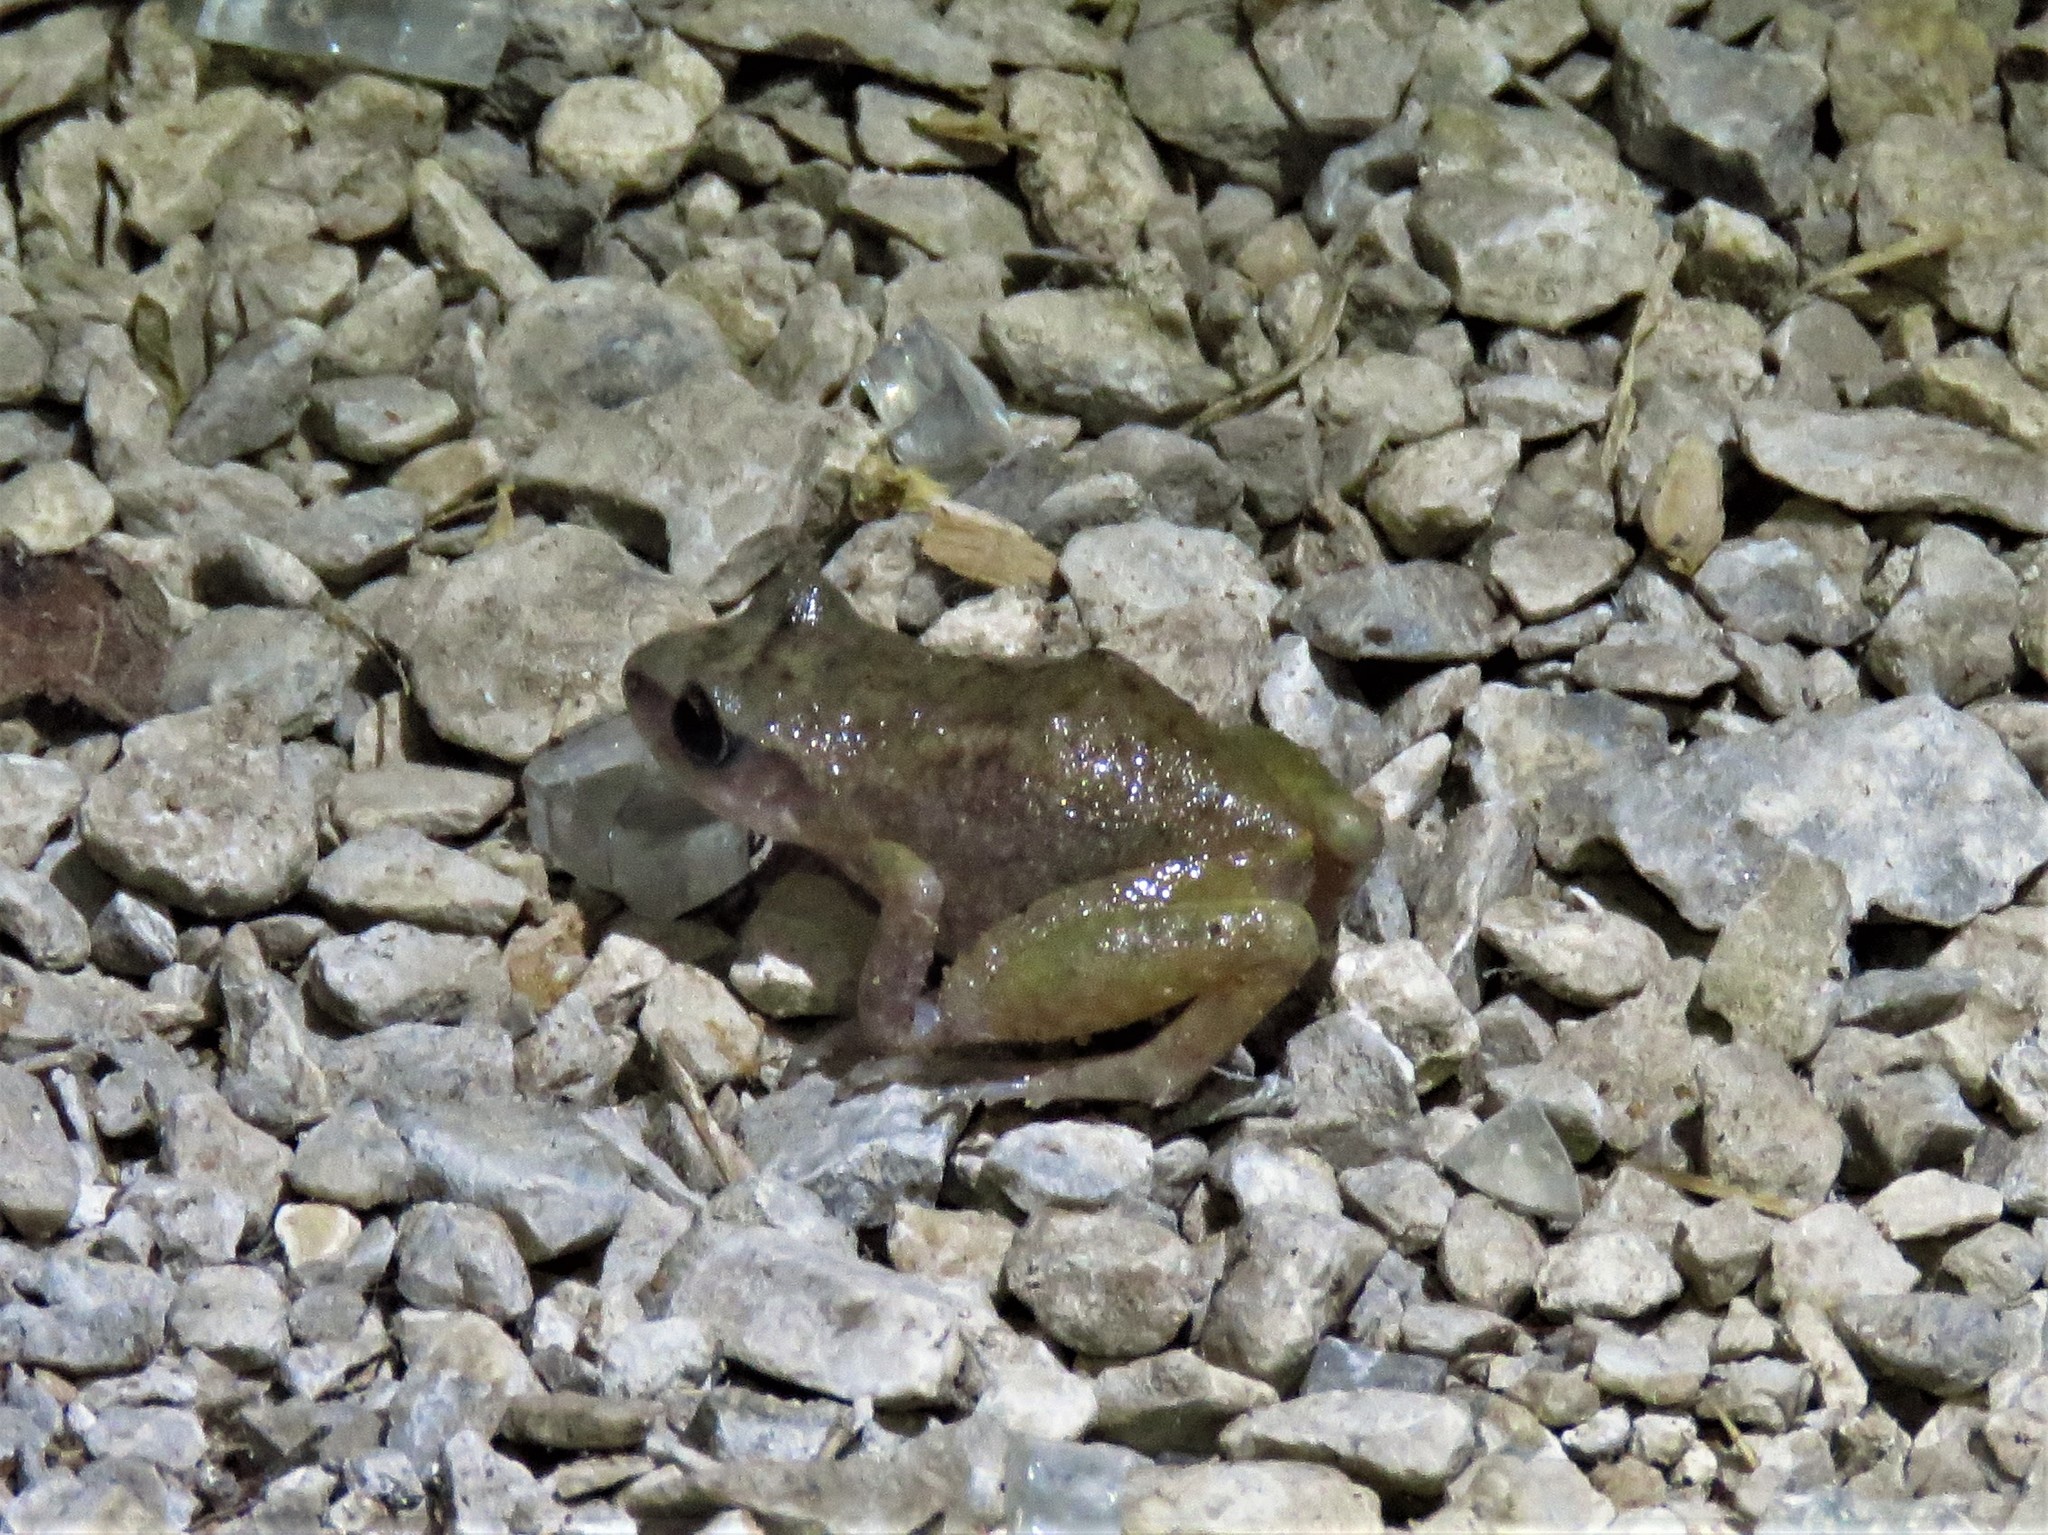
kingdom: Animalia
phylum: Chordata
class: Amphibia
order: Anura
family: Eleutherodactylidae
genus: Eleutherodactylus
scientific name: Eleutherodactylus campi
